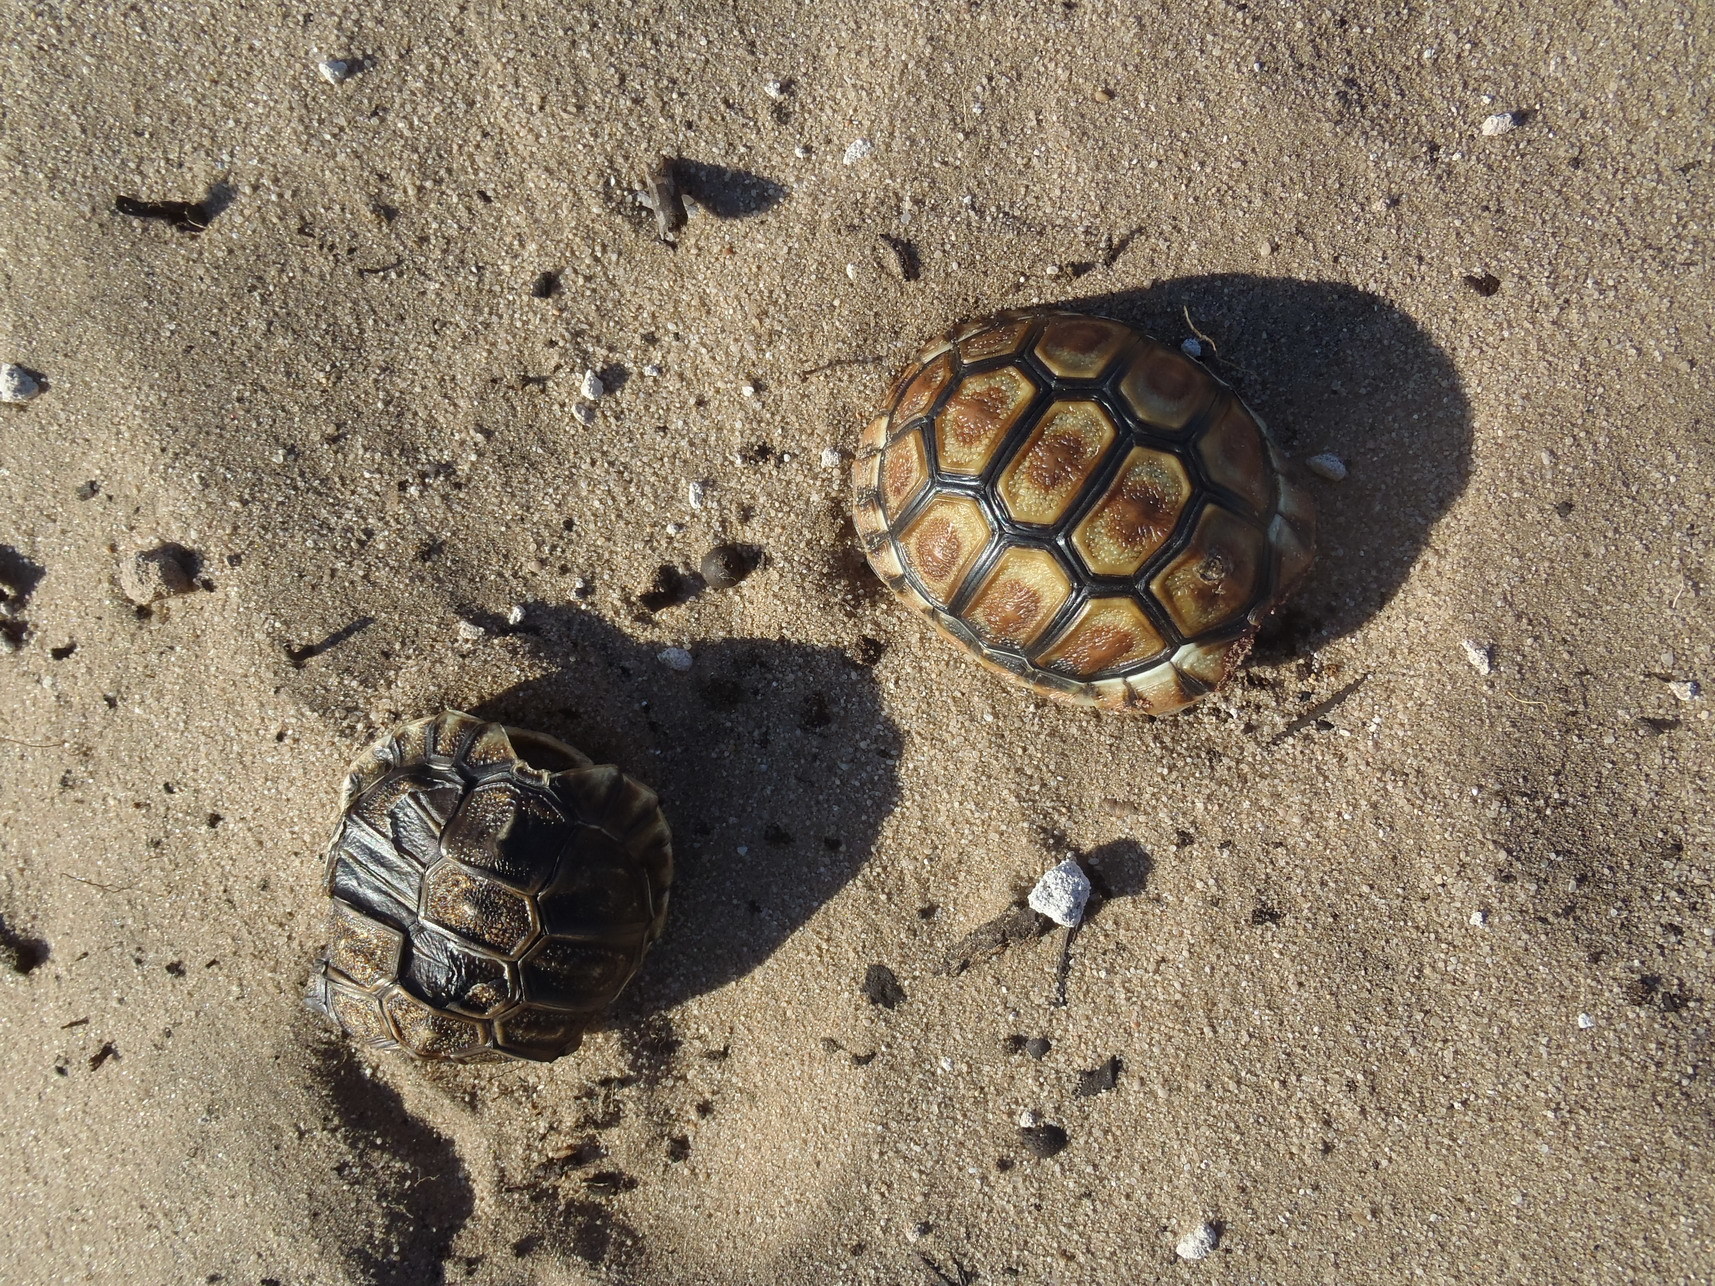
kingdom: Animalia
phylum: Chordata
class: Testudines
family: Testudinidae
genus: Chersina
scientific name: Chersina angulata
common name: South african bowsprit tortoise
